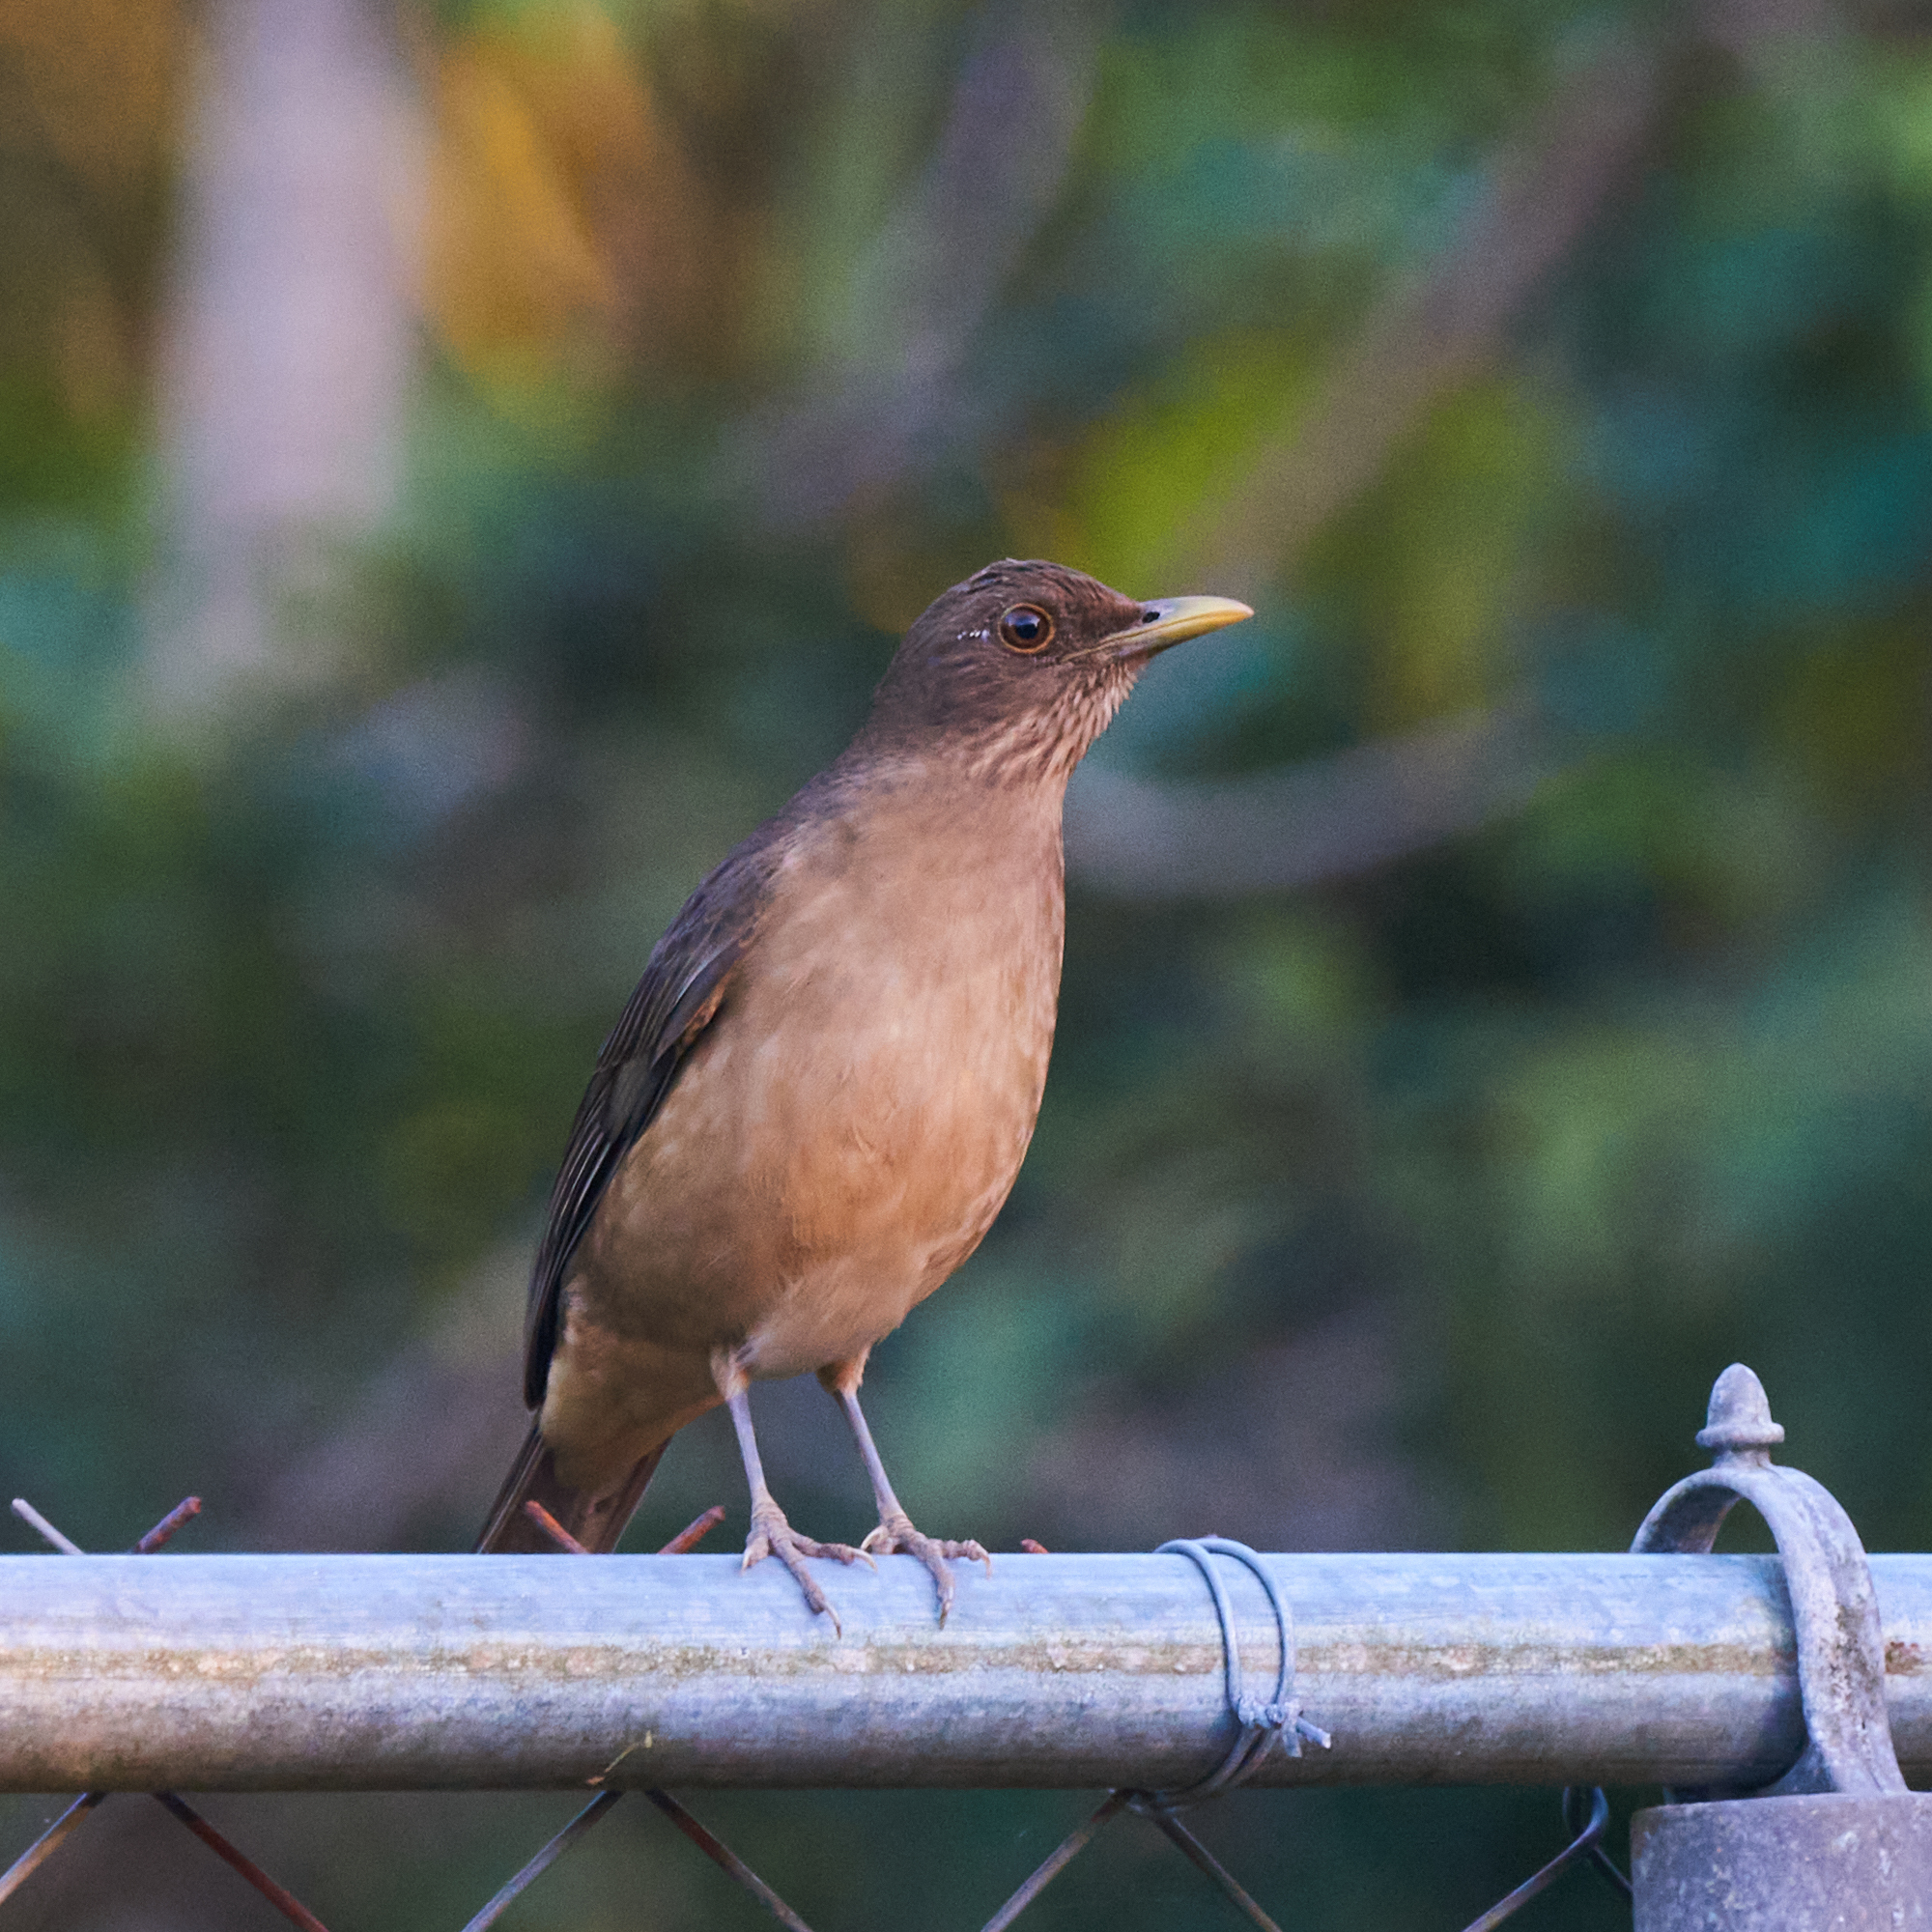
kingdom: Animalia
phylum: Chordata
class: Aves
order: Passeriformes
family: Turdidae
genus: Turdus
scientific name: Turdus grayi
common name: Clay-colored thrush
